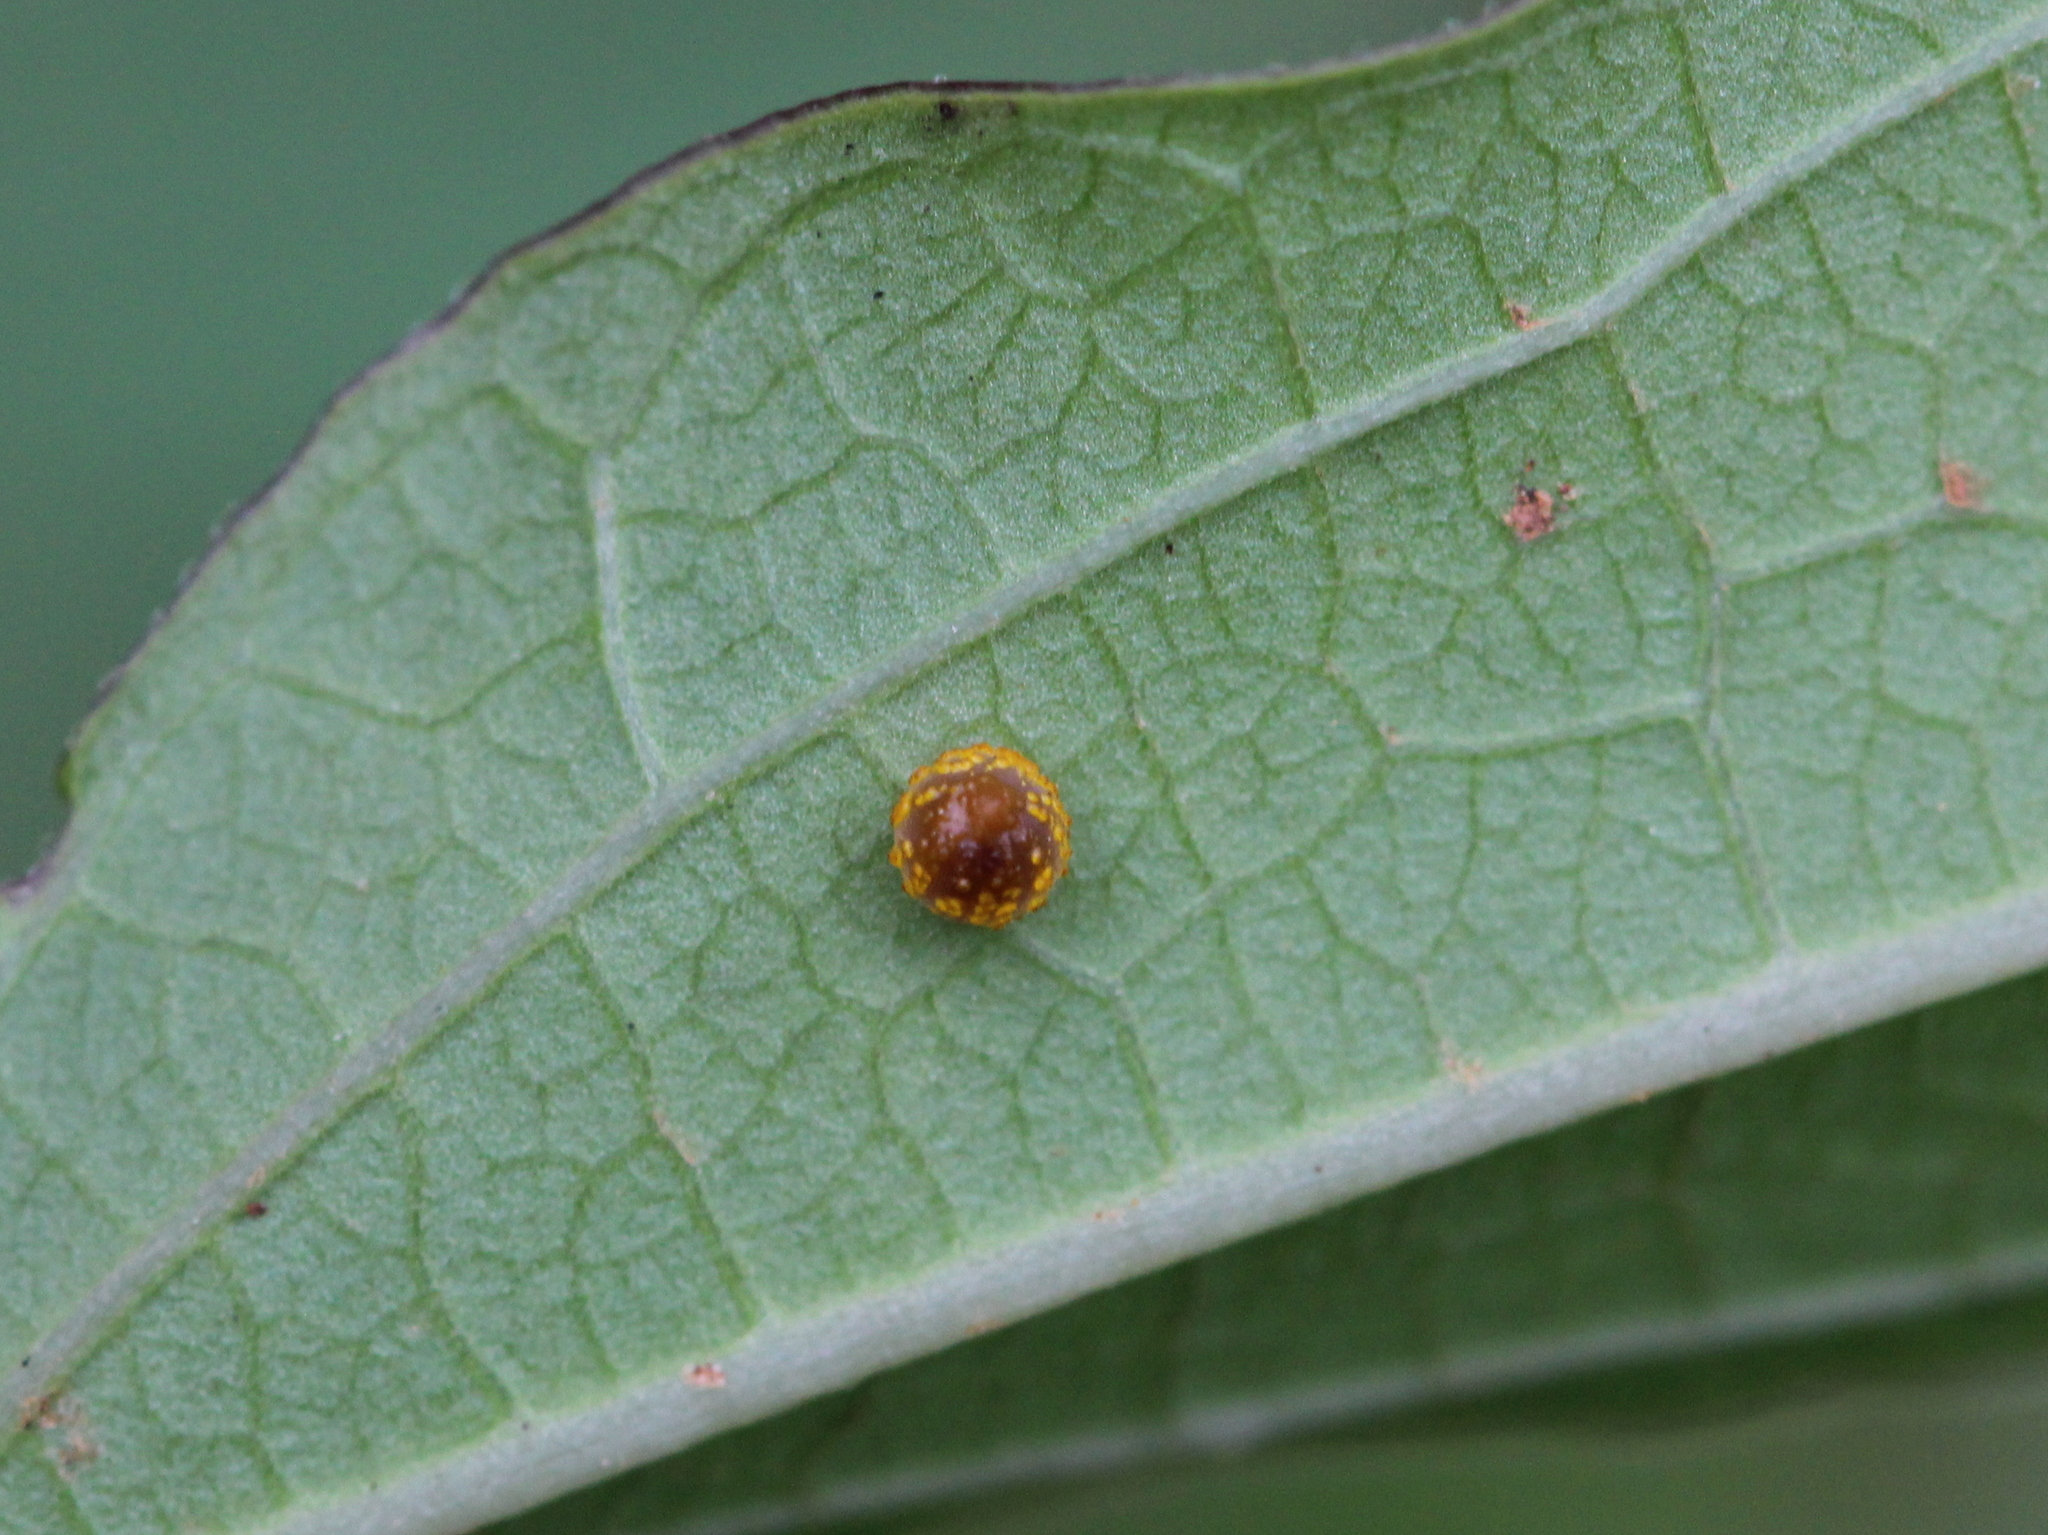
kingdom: Animalia
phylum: Arthropoda
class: Insecta
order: Lepidoptera
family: Papilionidae
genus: Pachliopta
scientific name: Pachliopta aristolochiae
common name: Common rose
